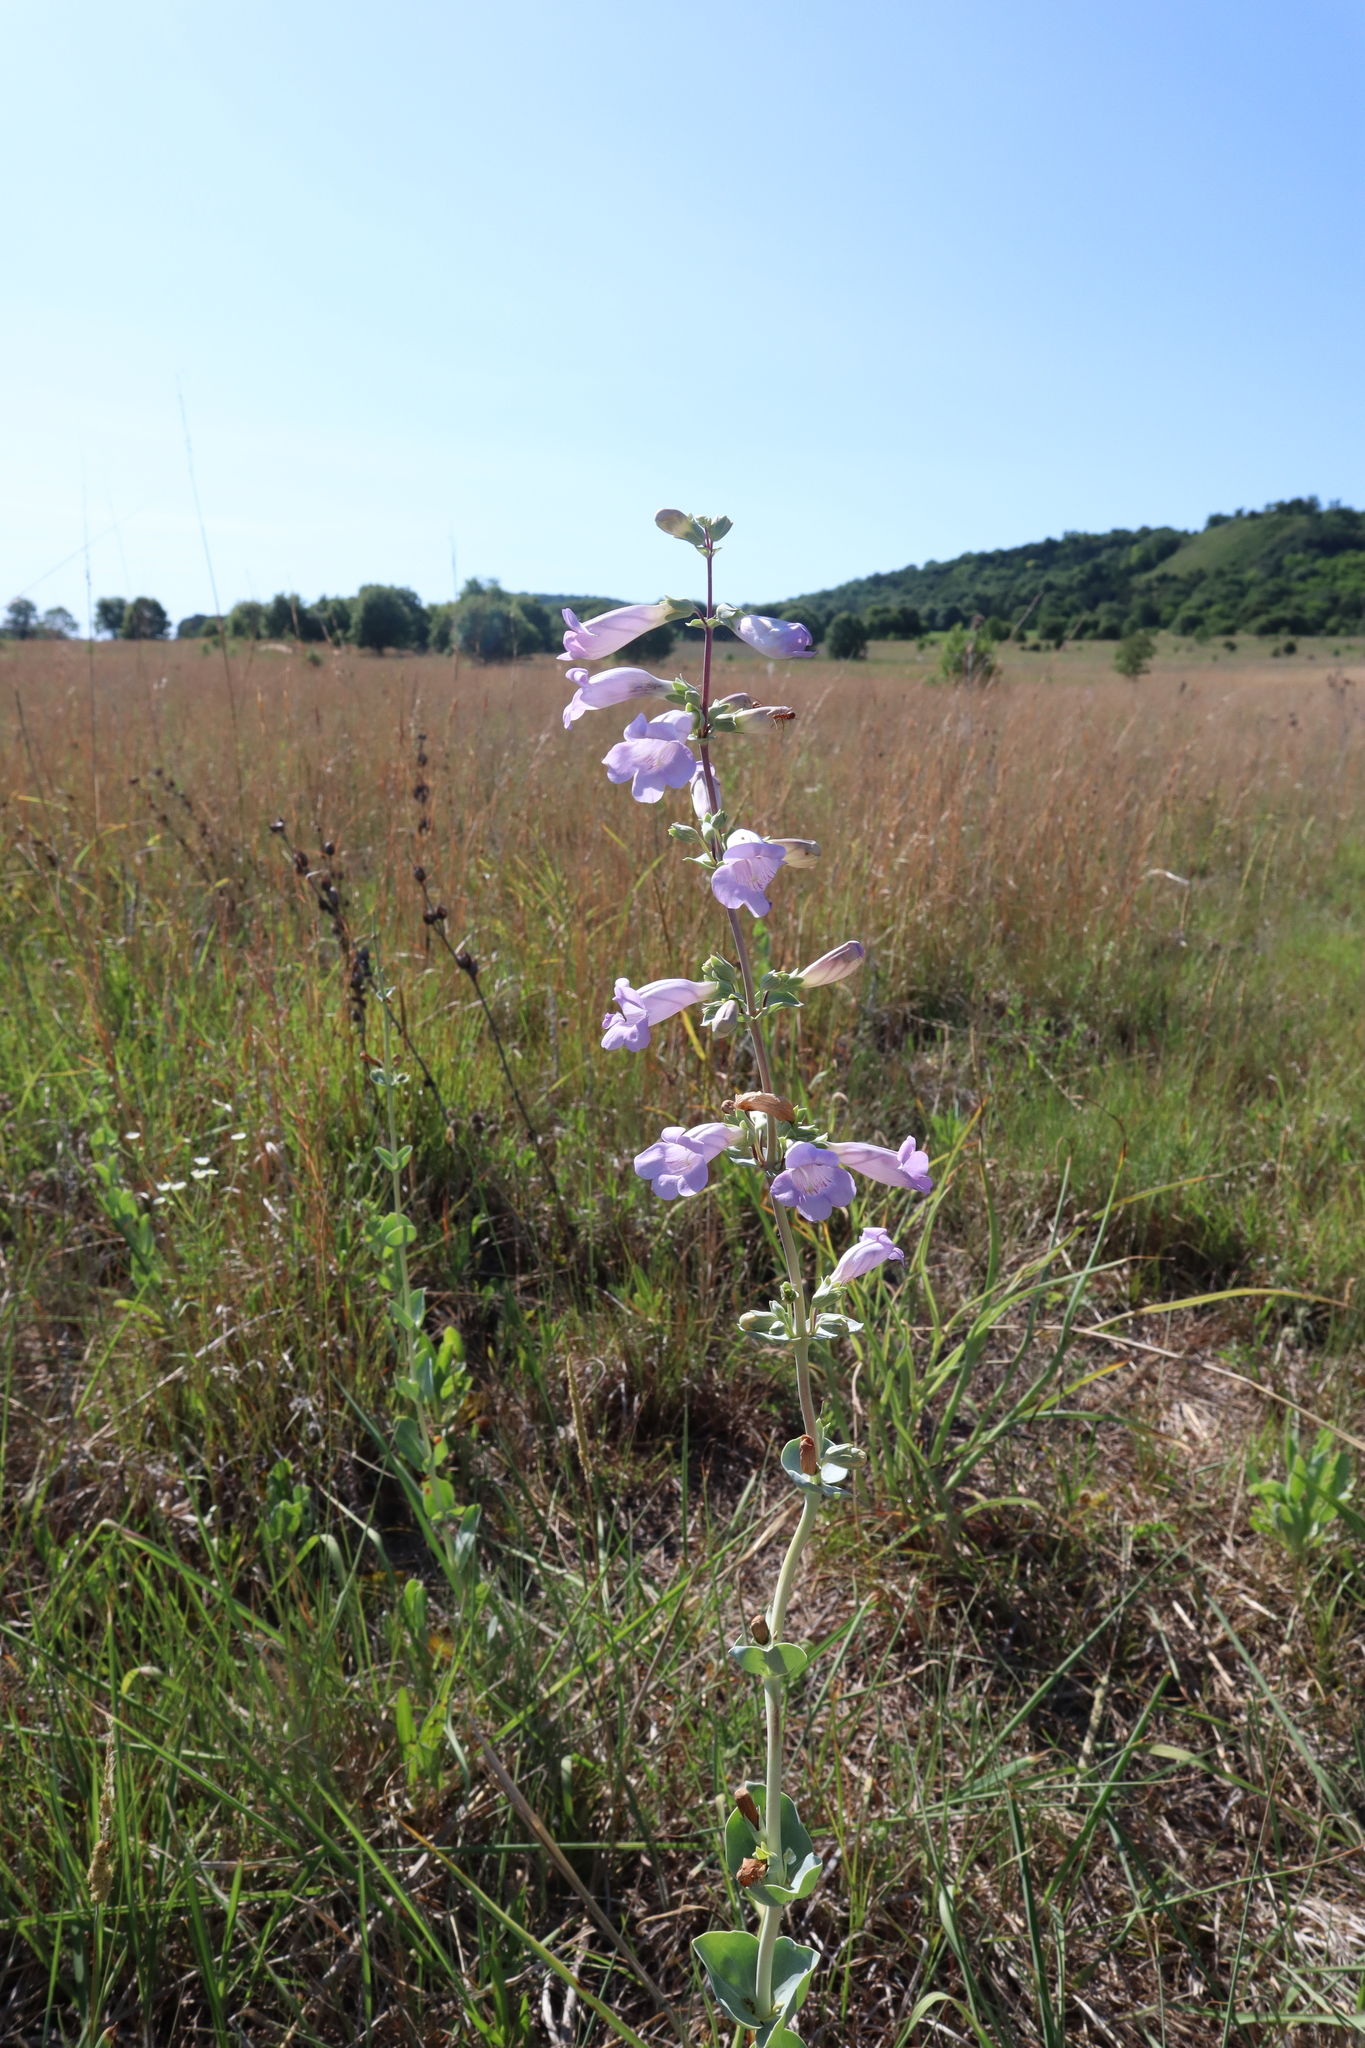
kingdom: Plantae
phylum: Tracheophyta
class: Magnoliopsida
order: Lamiales
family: Plantaginaceae
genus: Penstemon
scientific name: Penstemon
